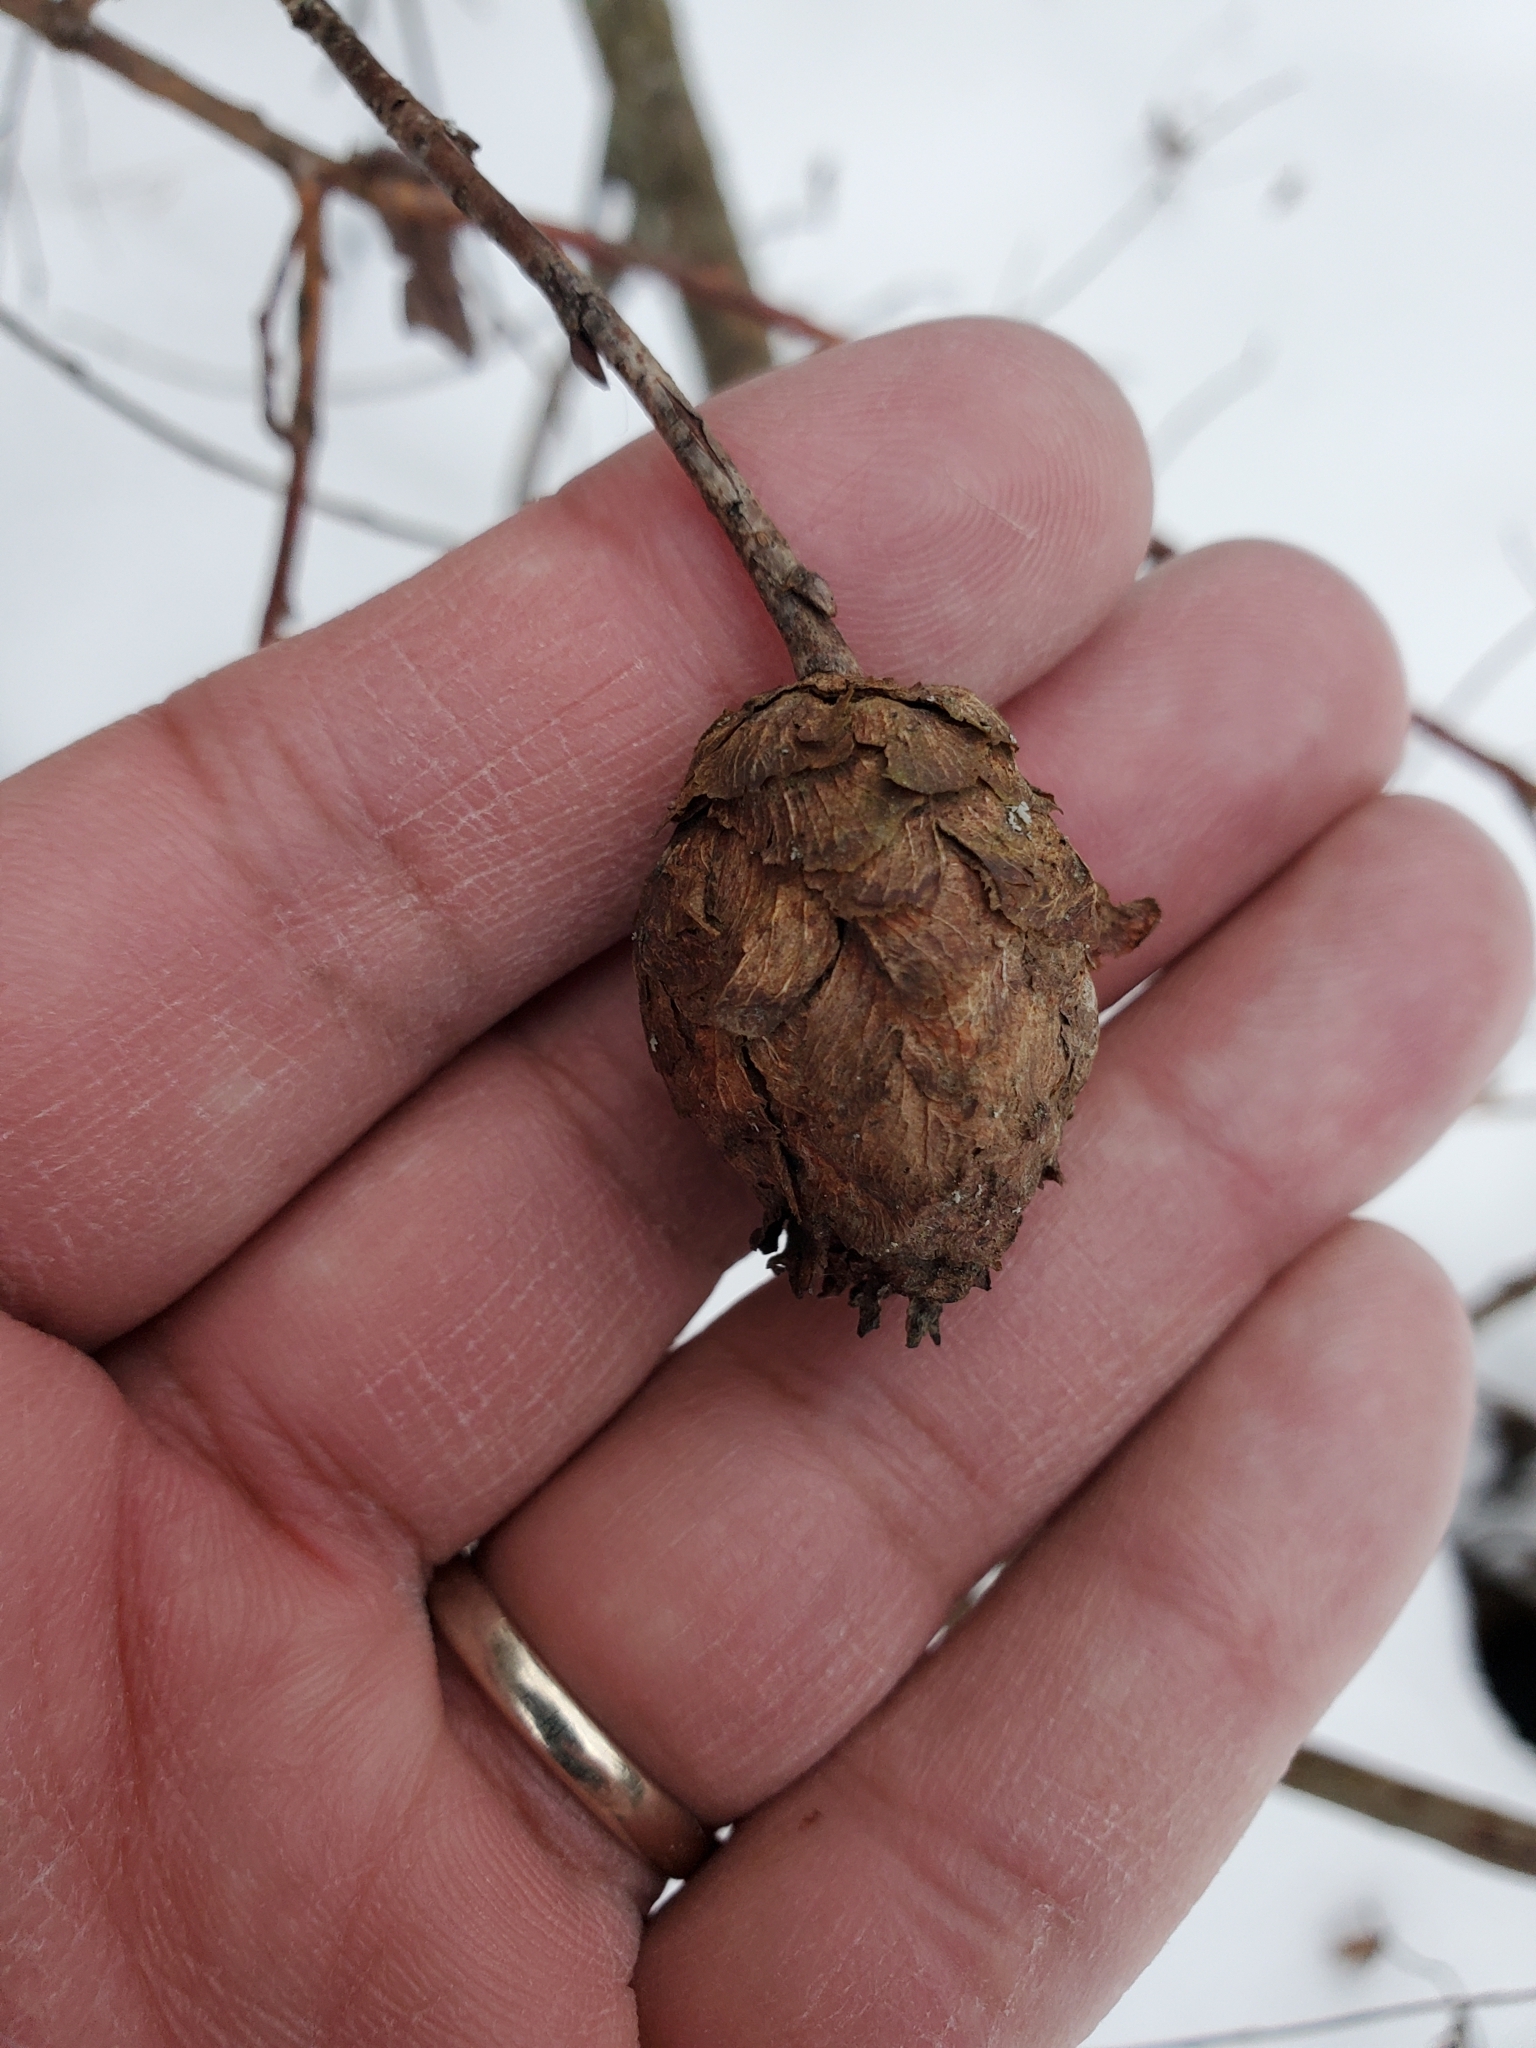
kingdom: Animalia
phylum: Arthropoda
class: Insecta
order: Diptera
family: Cecidomyiidae
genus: Rabdophaga
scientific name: Rabdophaga strobiloides
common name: Willow pinecone gall midge
